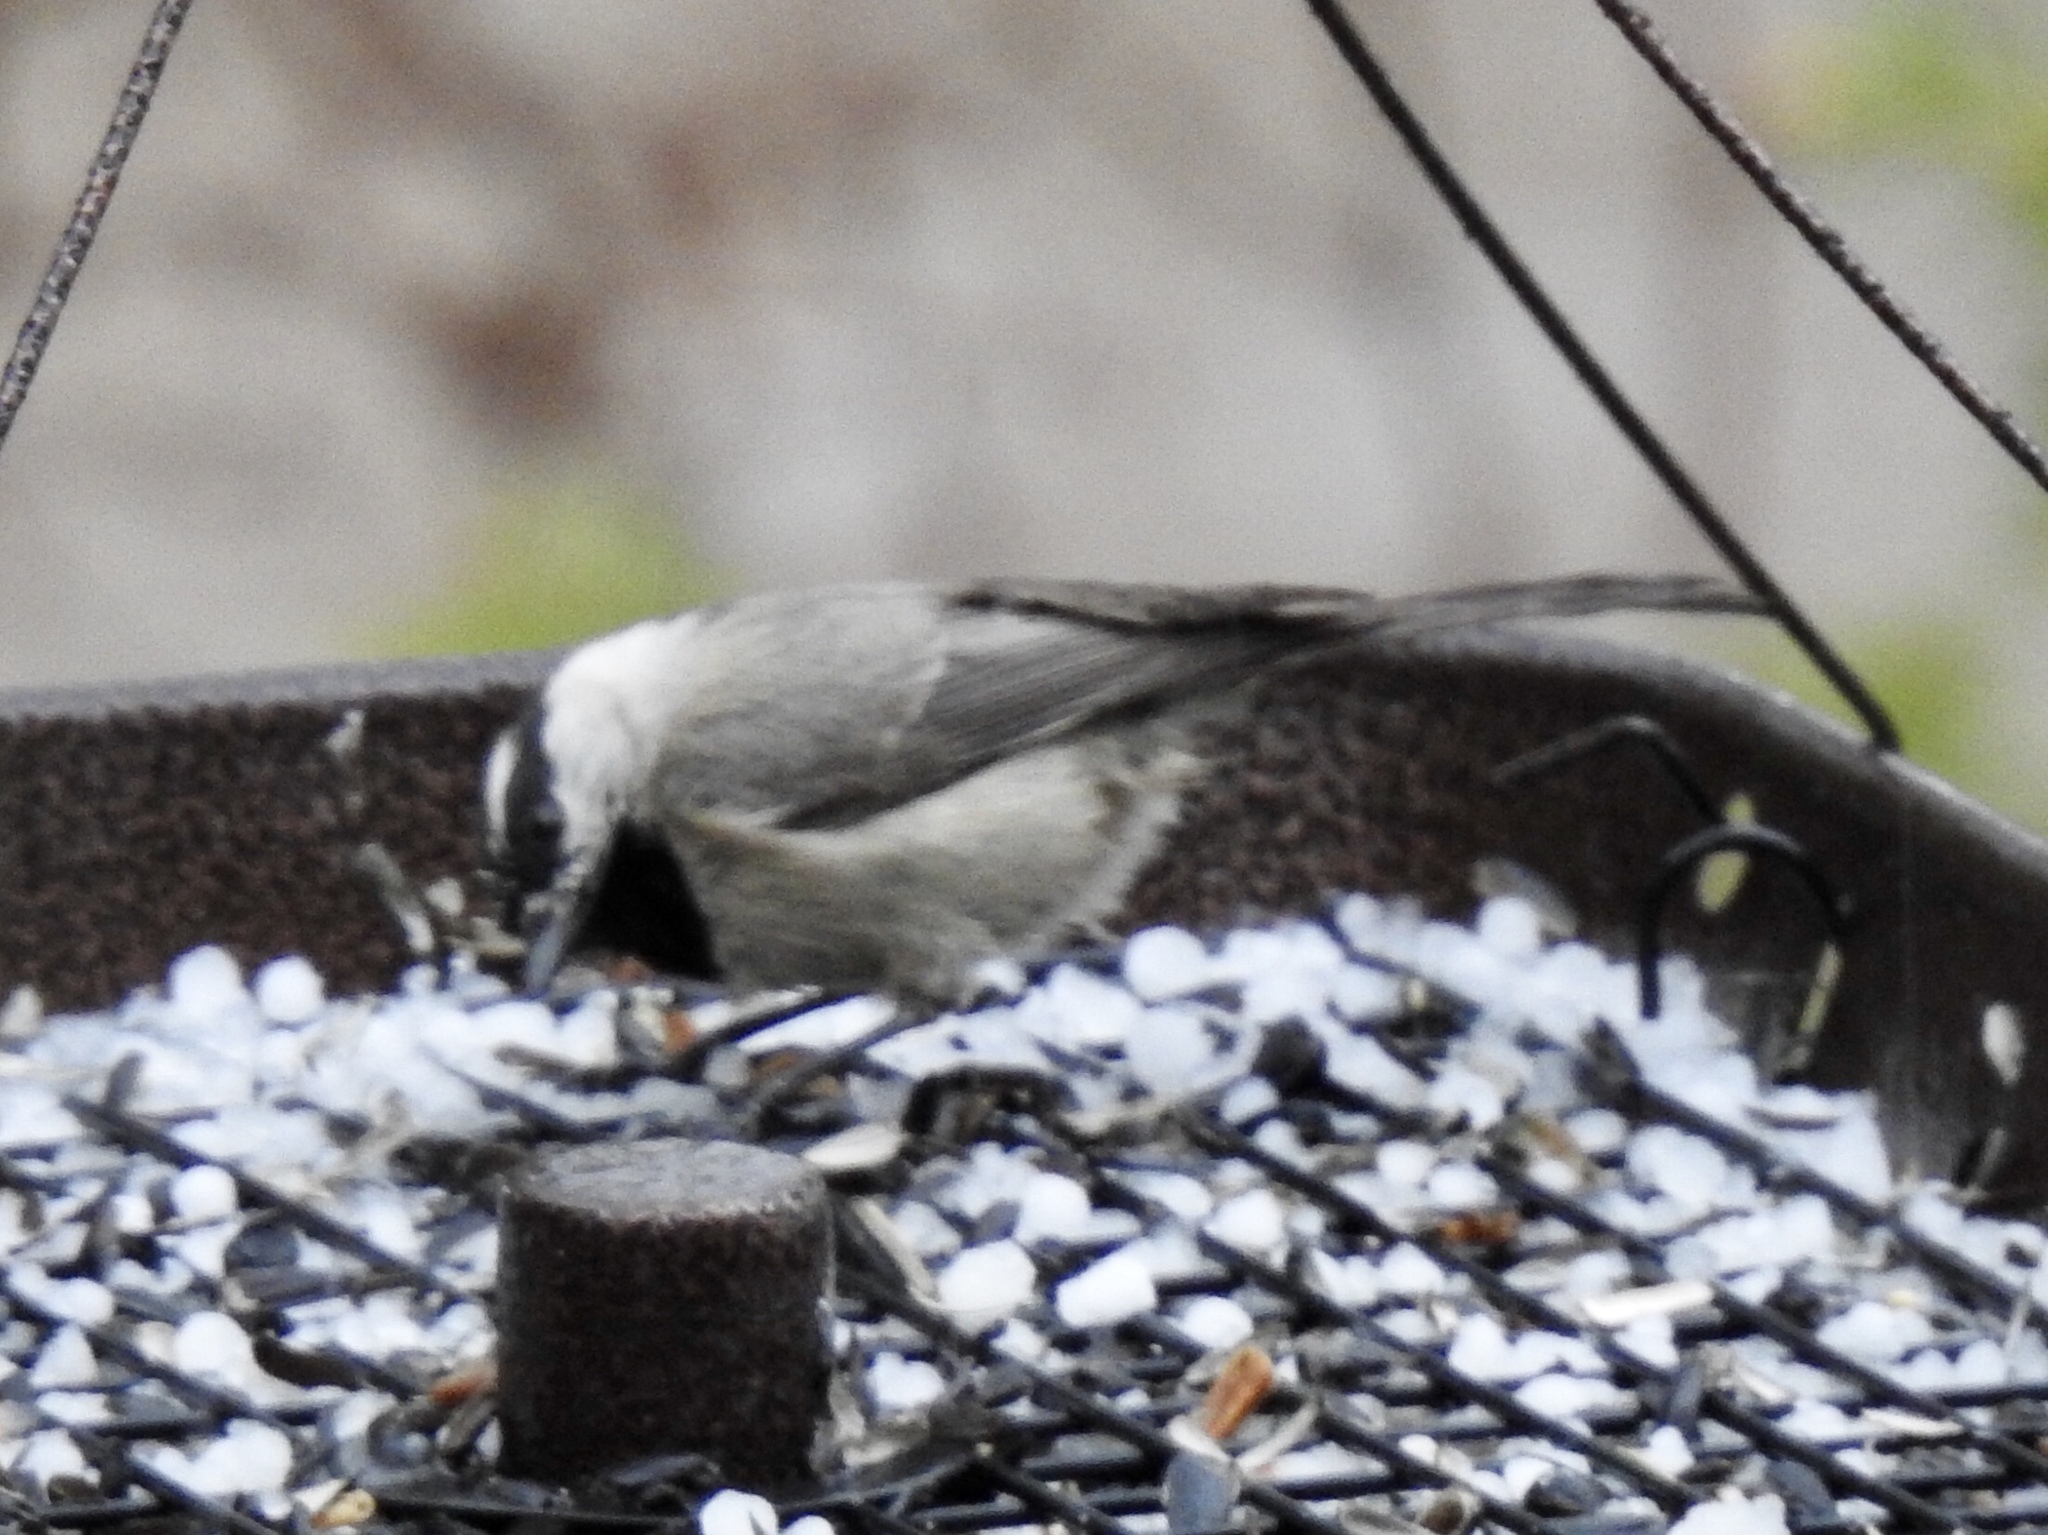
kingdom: Animalia
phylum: Chordata
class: Aves
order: Passeriformes
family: Paridae
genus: Poecile
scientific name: Poecile gambeli
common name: Mountain chickadee
